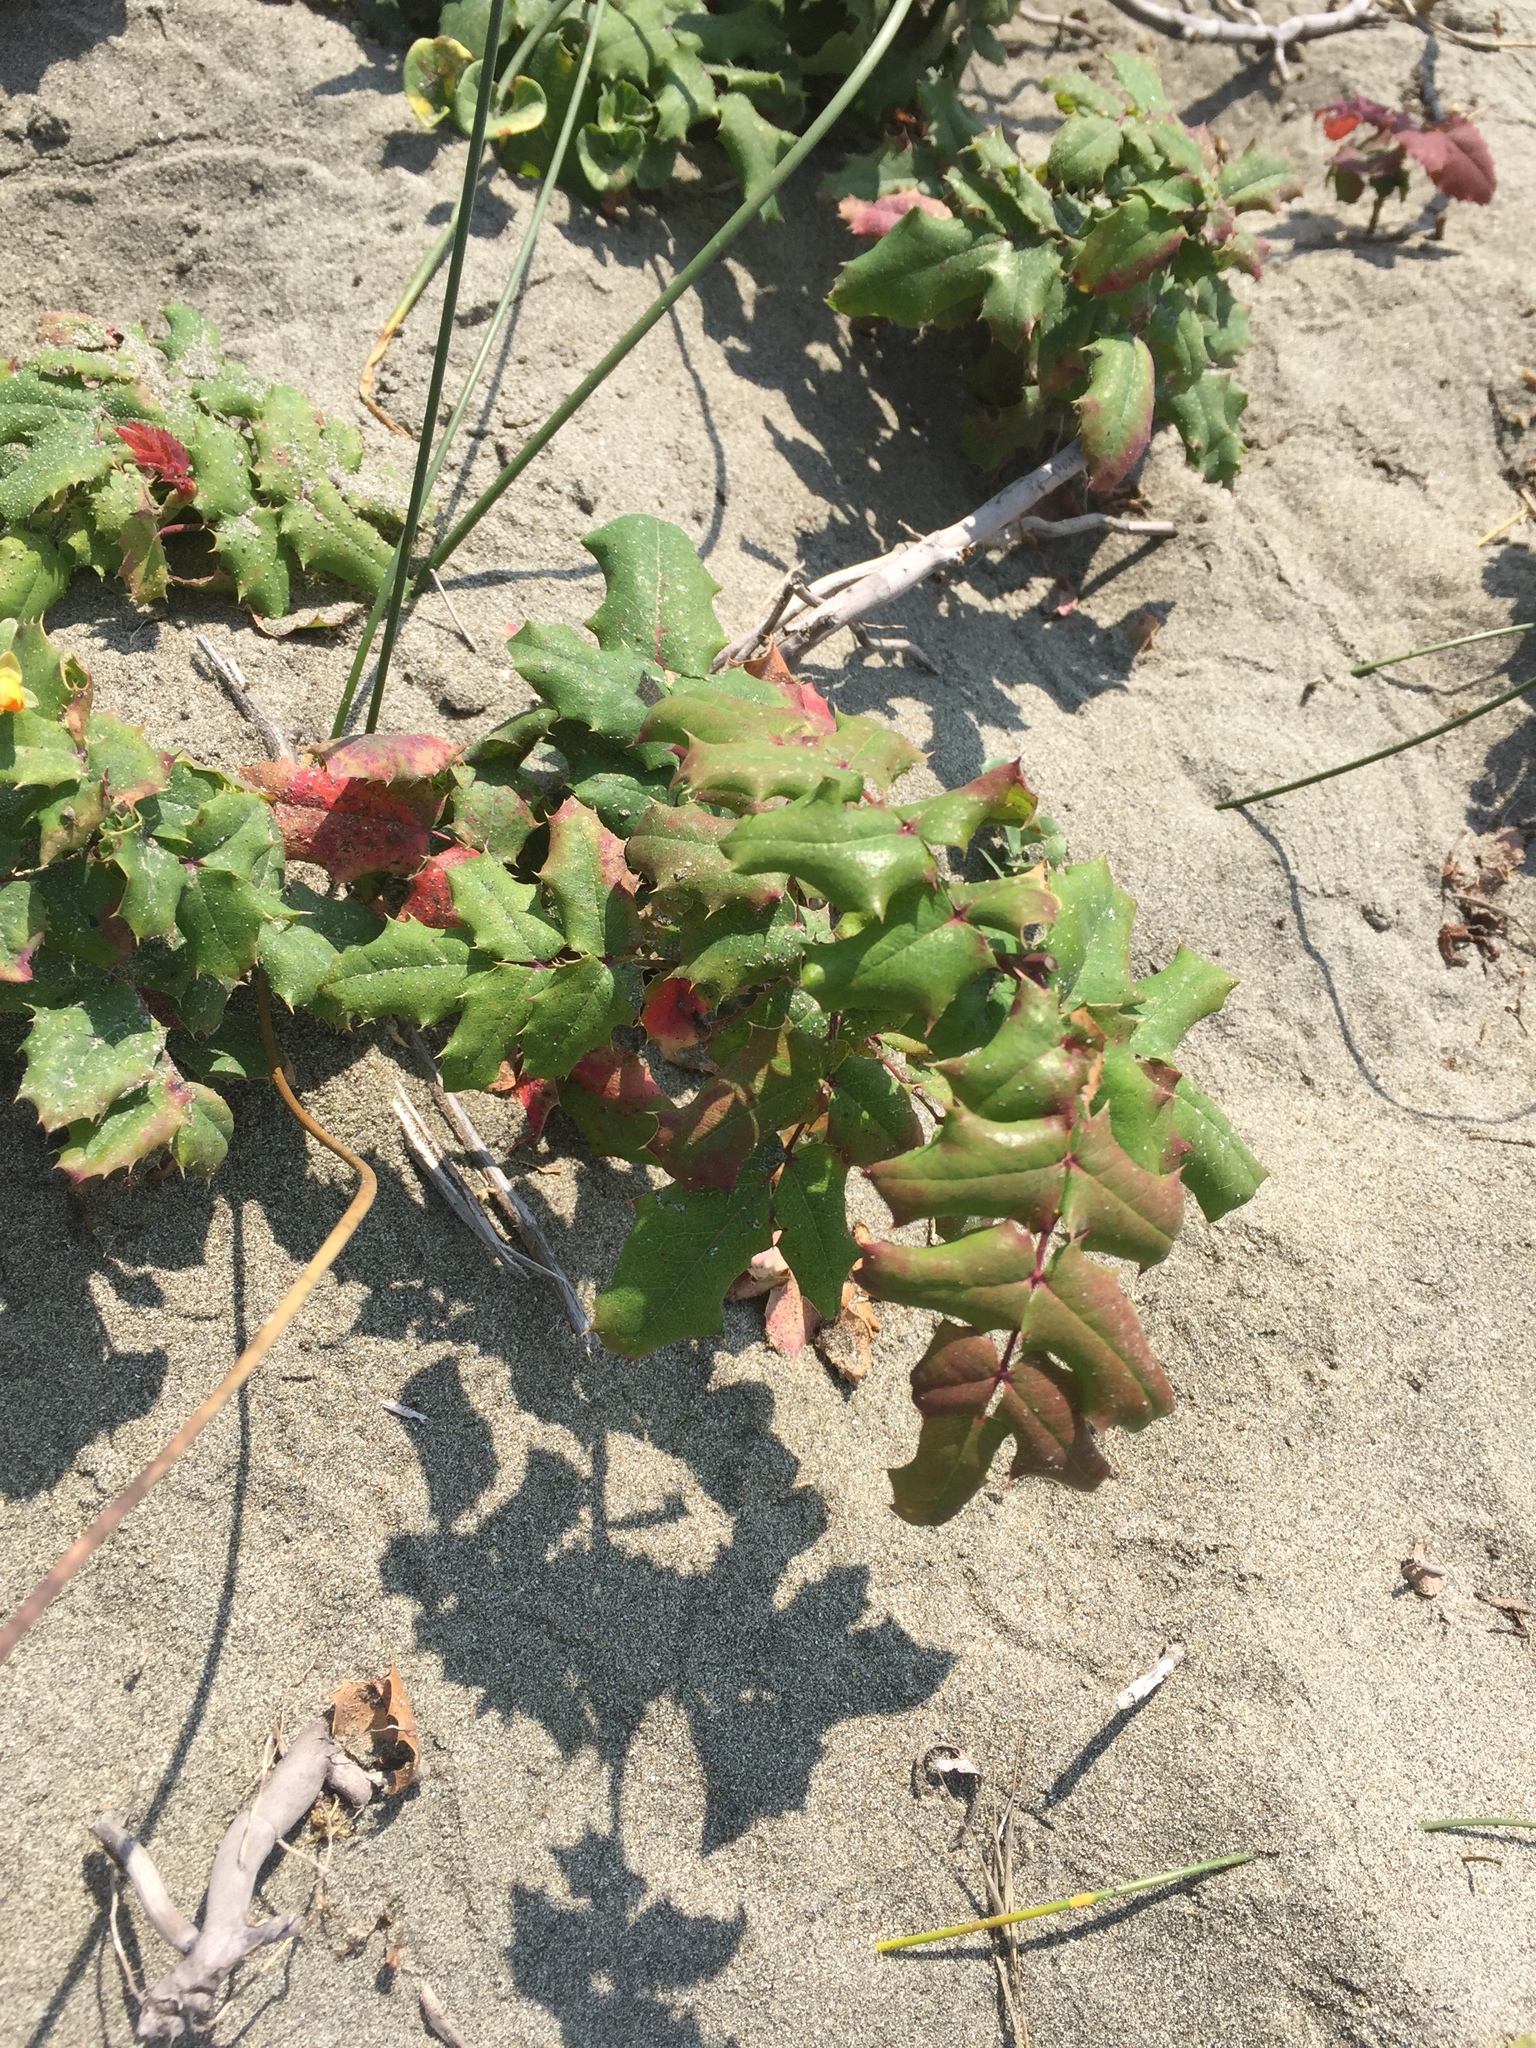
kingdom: Plantae
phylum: Tracheophyta
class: Magnoliopsida
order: Ranunculales
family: Berberidaceae
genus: Mahonia
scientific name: Mahonia aquifolium
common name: Oregon-grape
